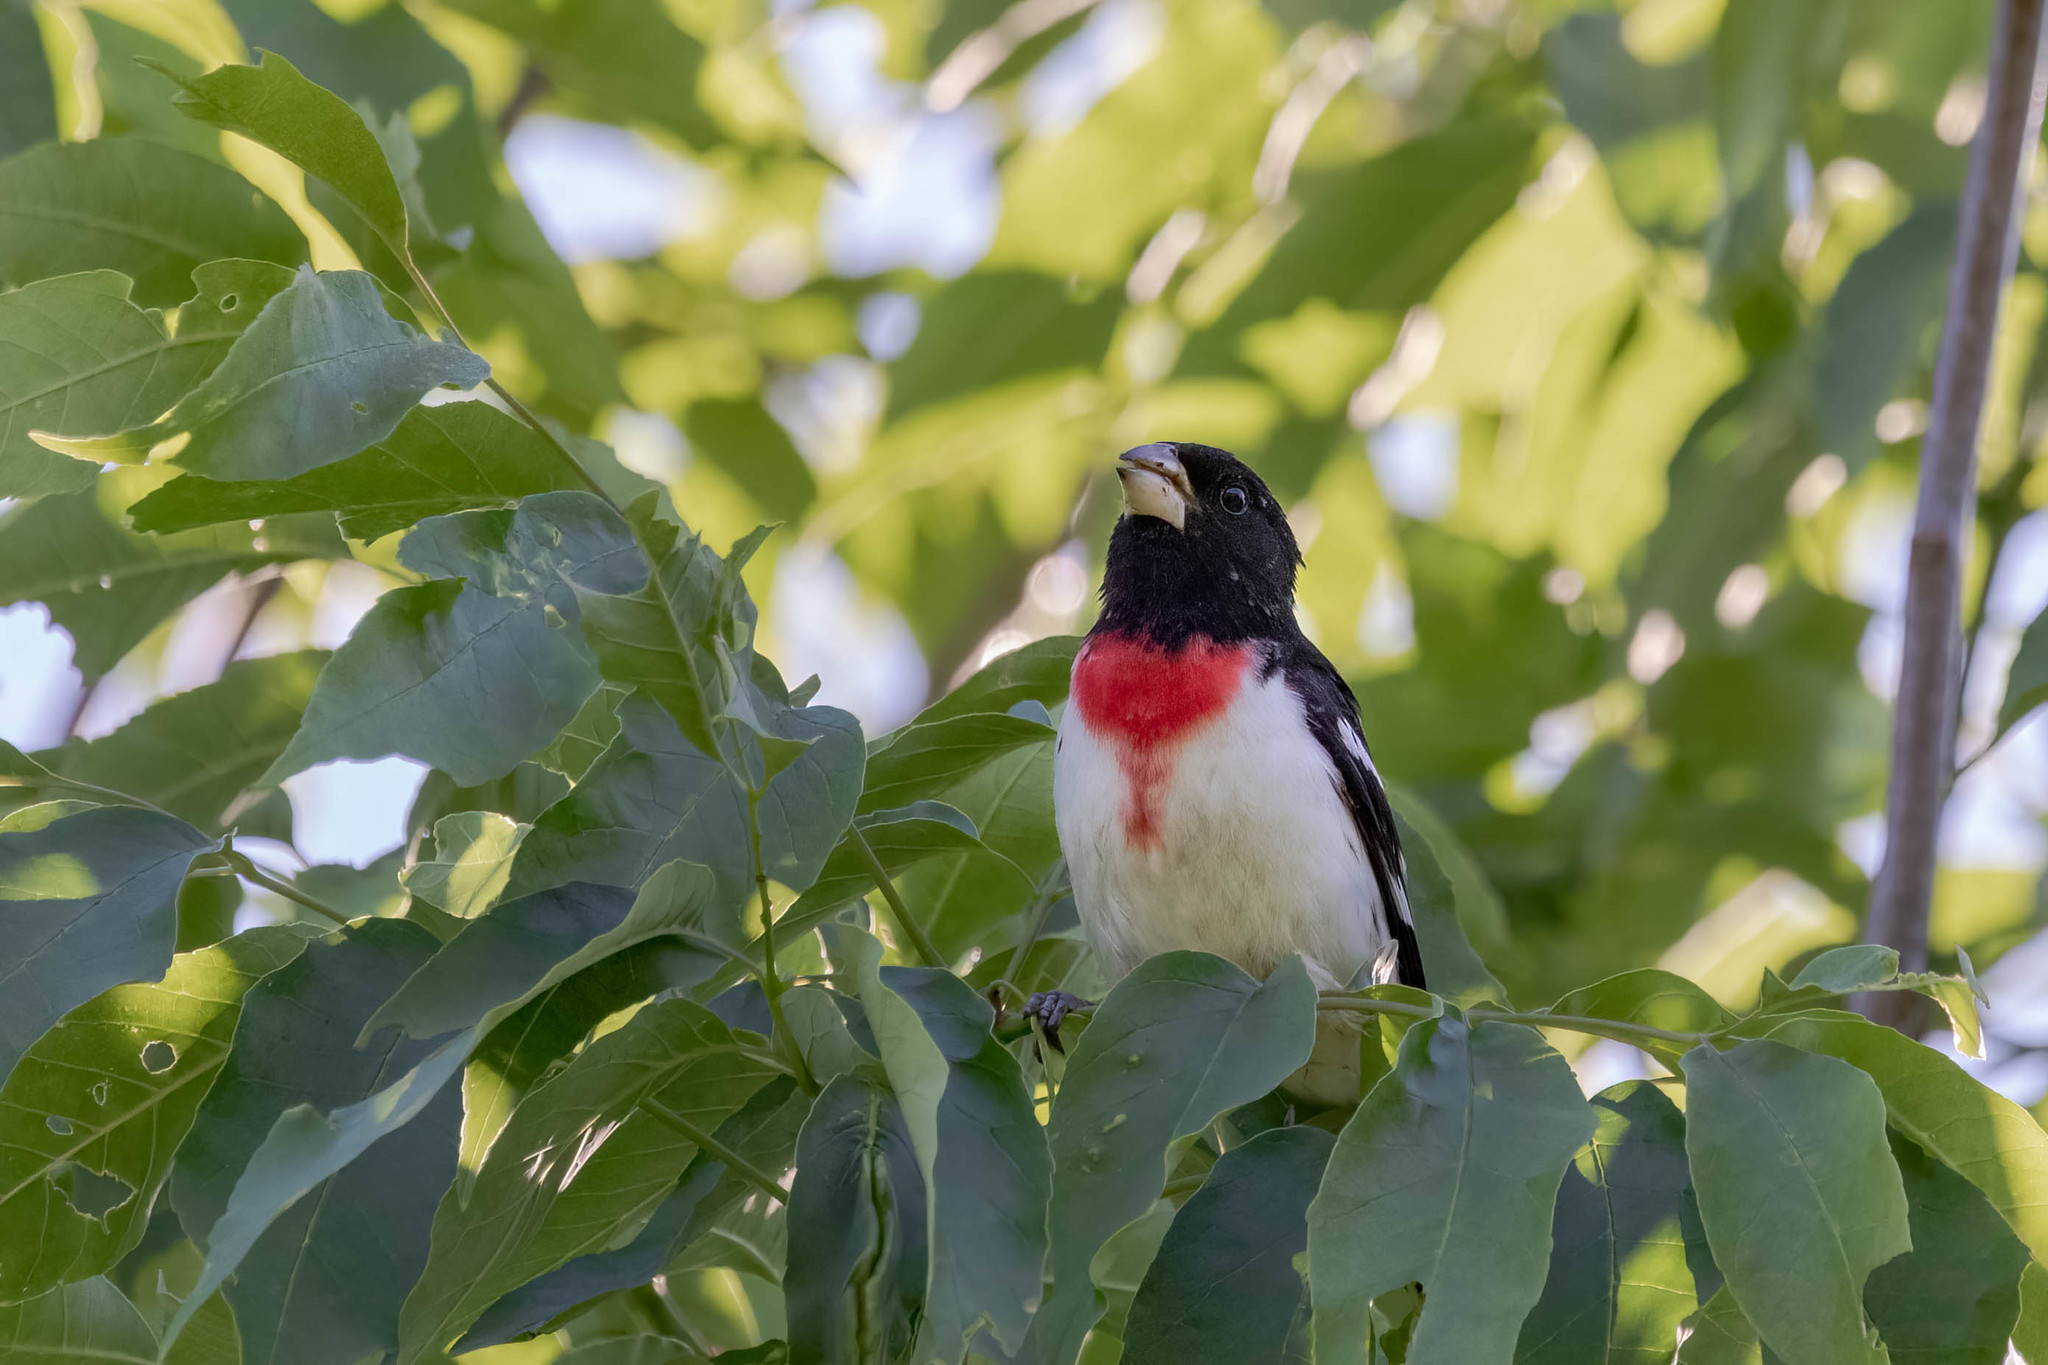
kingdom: Animalia
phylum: Chordata
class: Aves
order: Passeriformes
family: Cardinalidae
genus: Pheucticus
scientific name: Pheucticus ludovicianus
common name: Rose-breasted grosbeak
